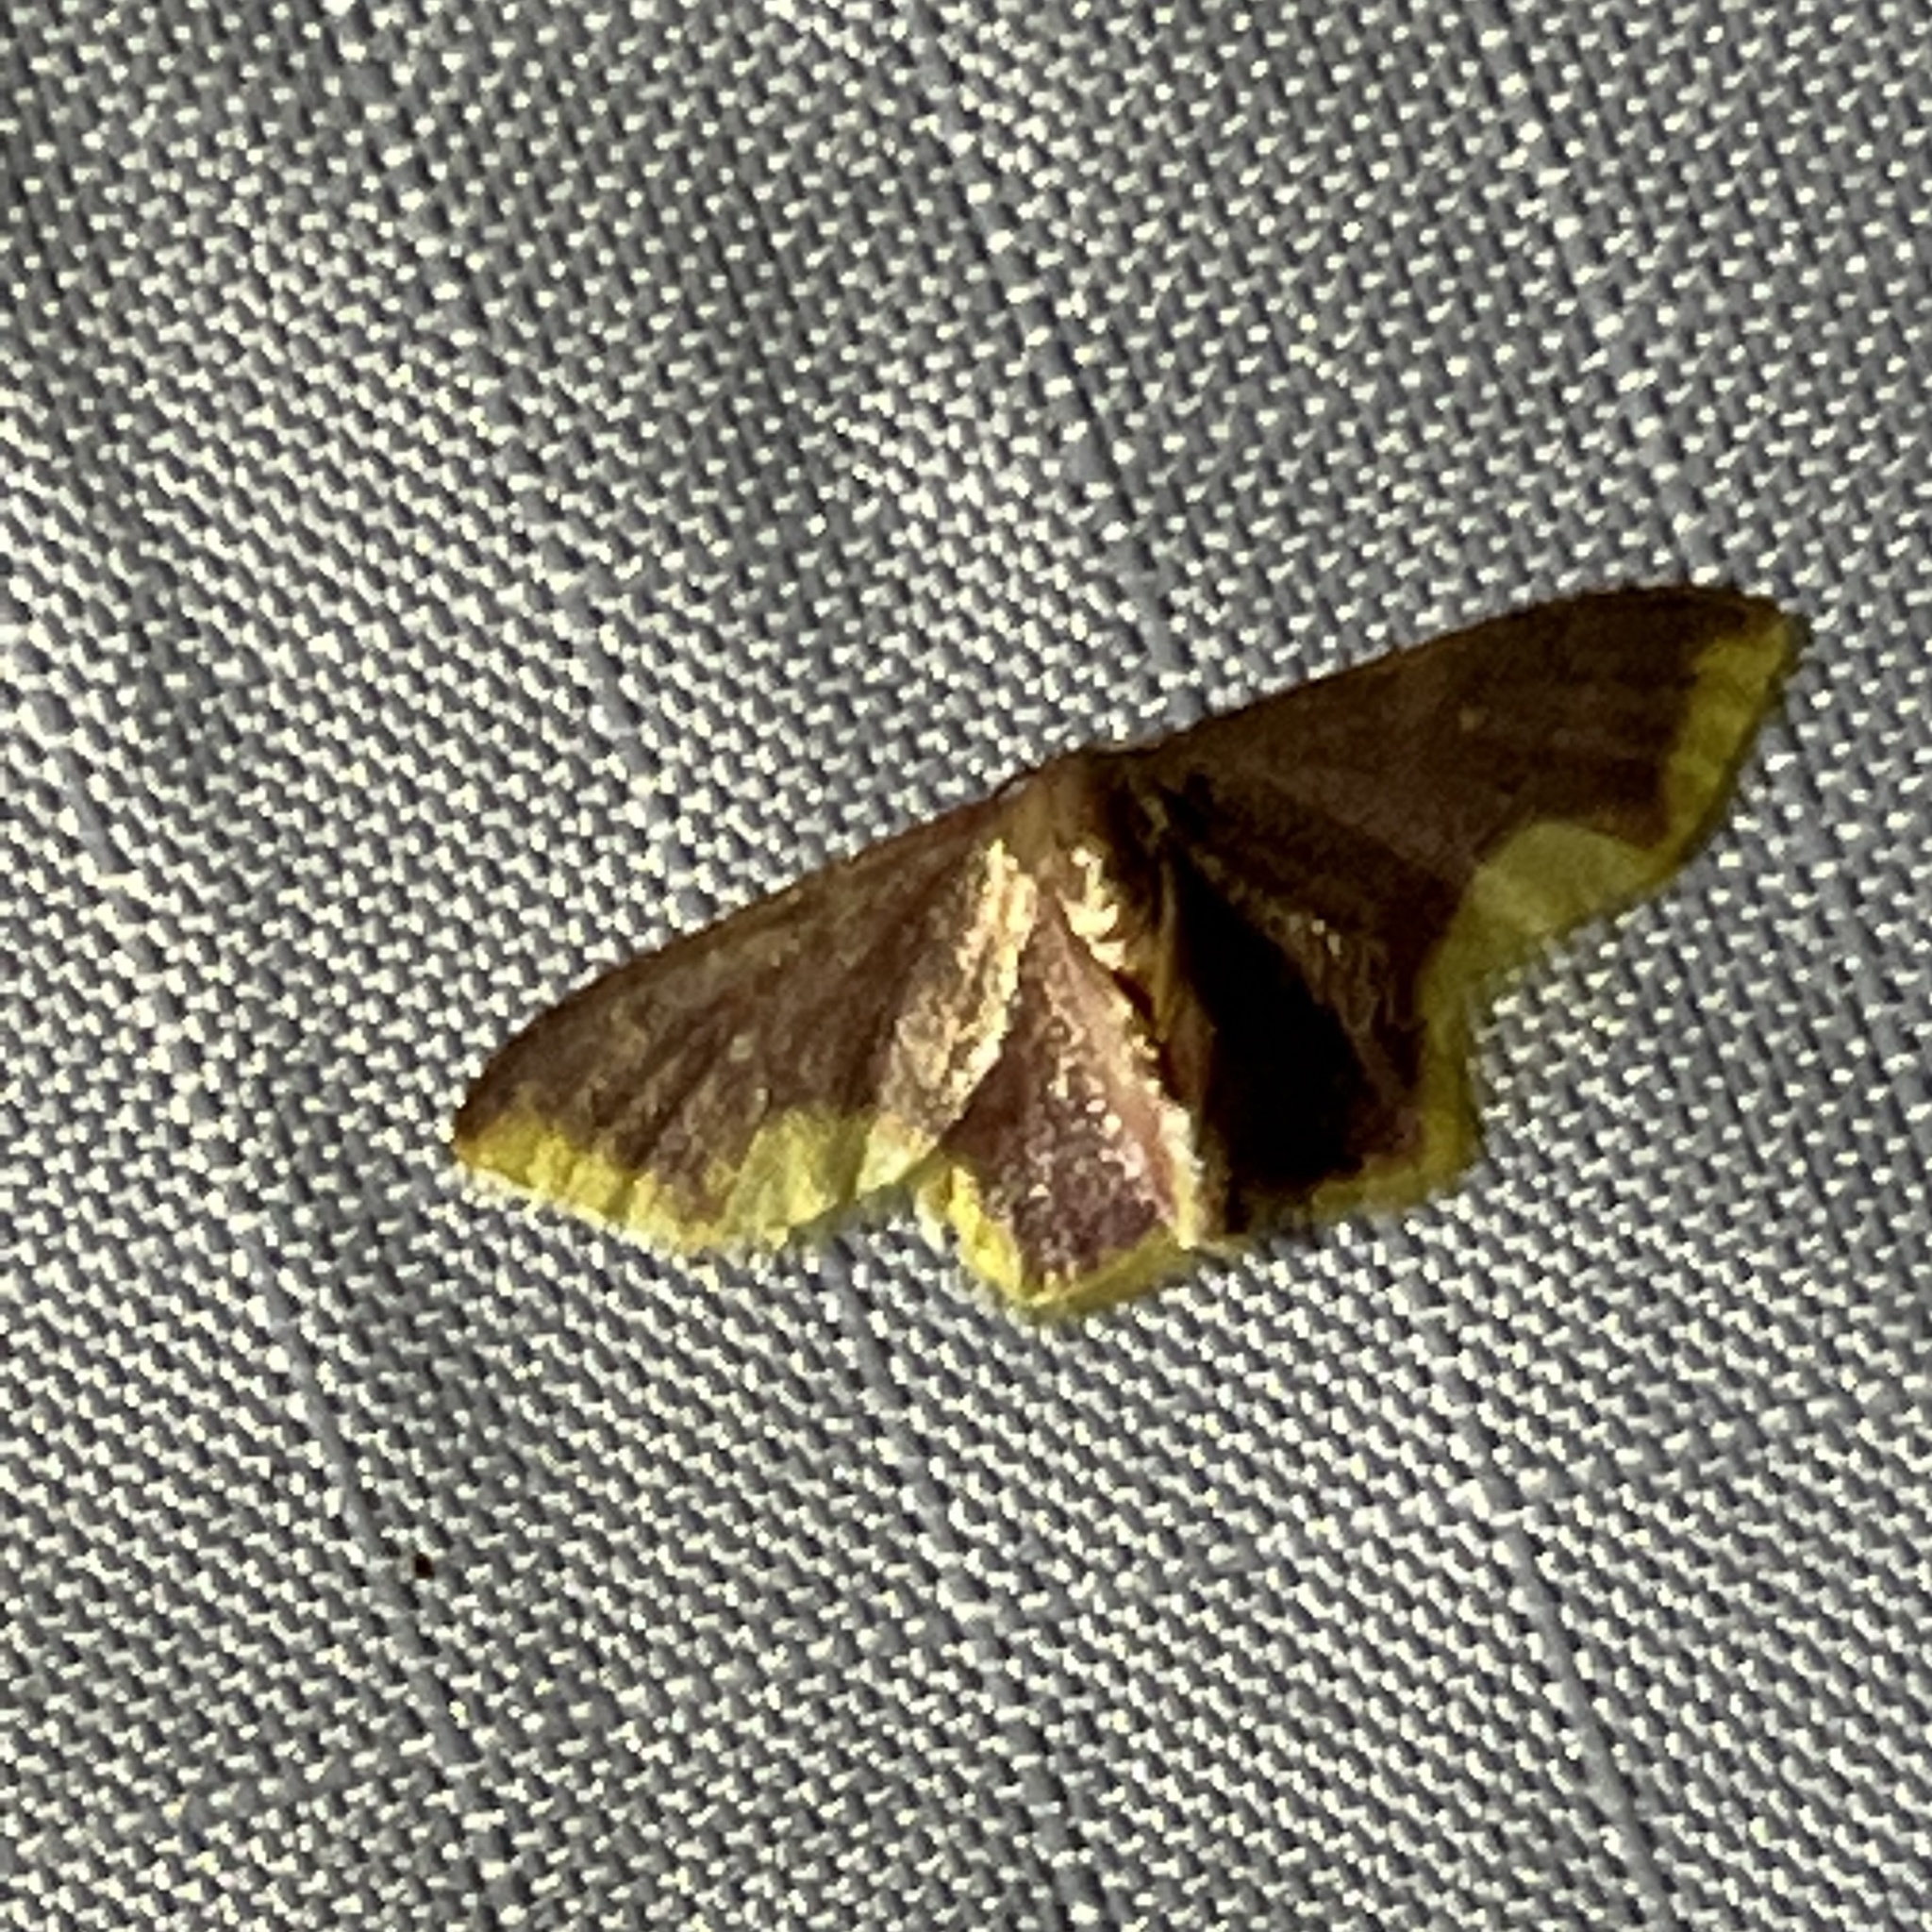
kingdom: Animalia
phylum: Arthropoda
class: Insecta
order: Lepidoptera
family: Geometridae
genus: Lophosis
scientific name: Lophosis labeculata
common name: Stained lophosis moth
